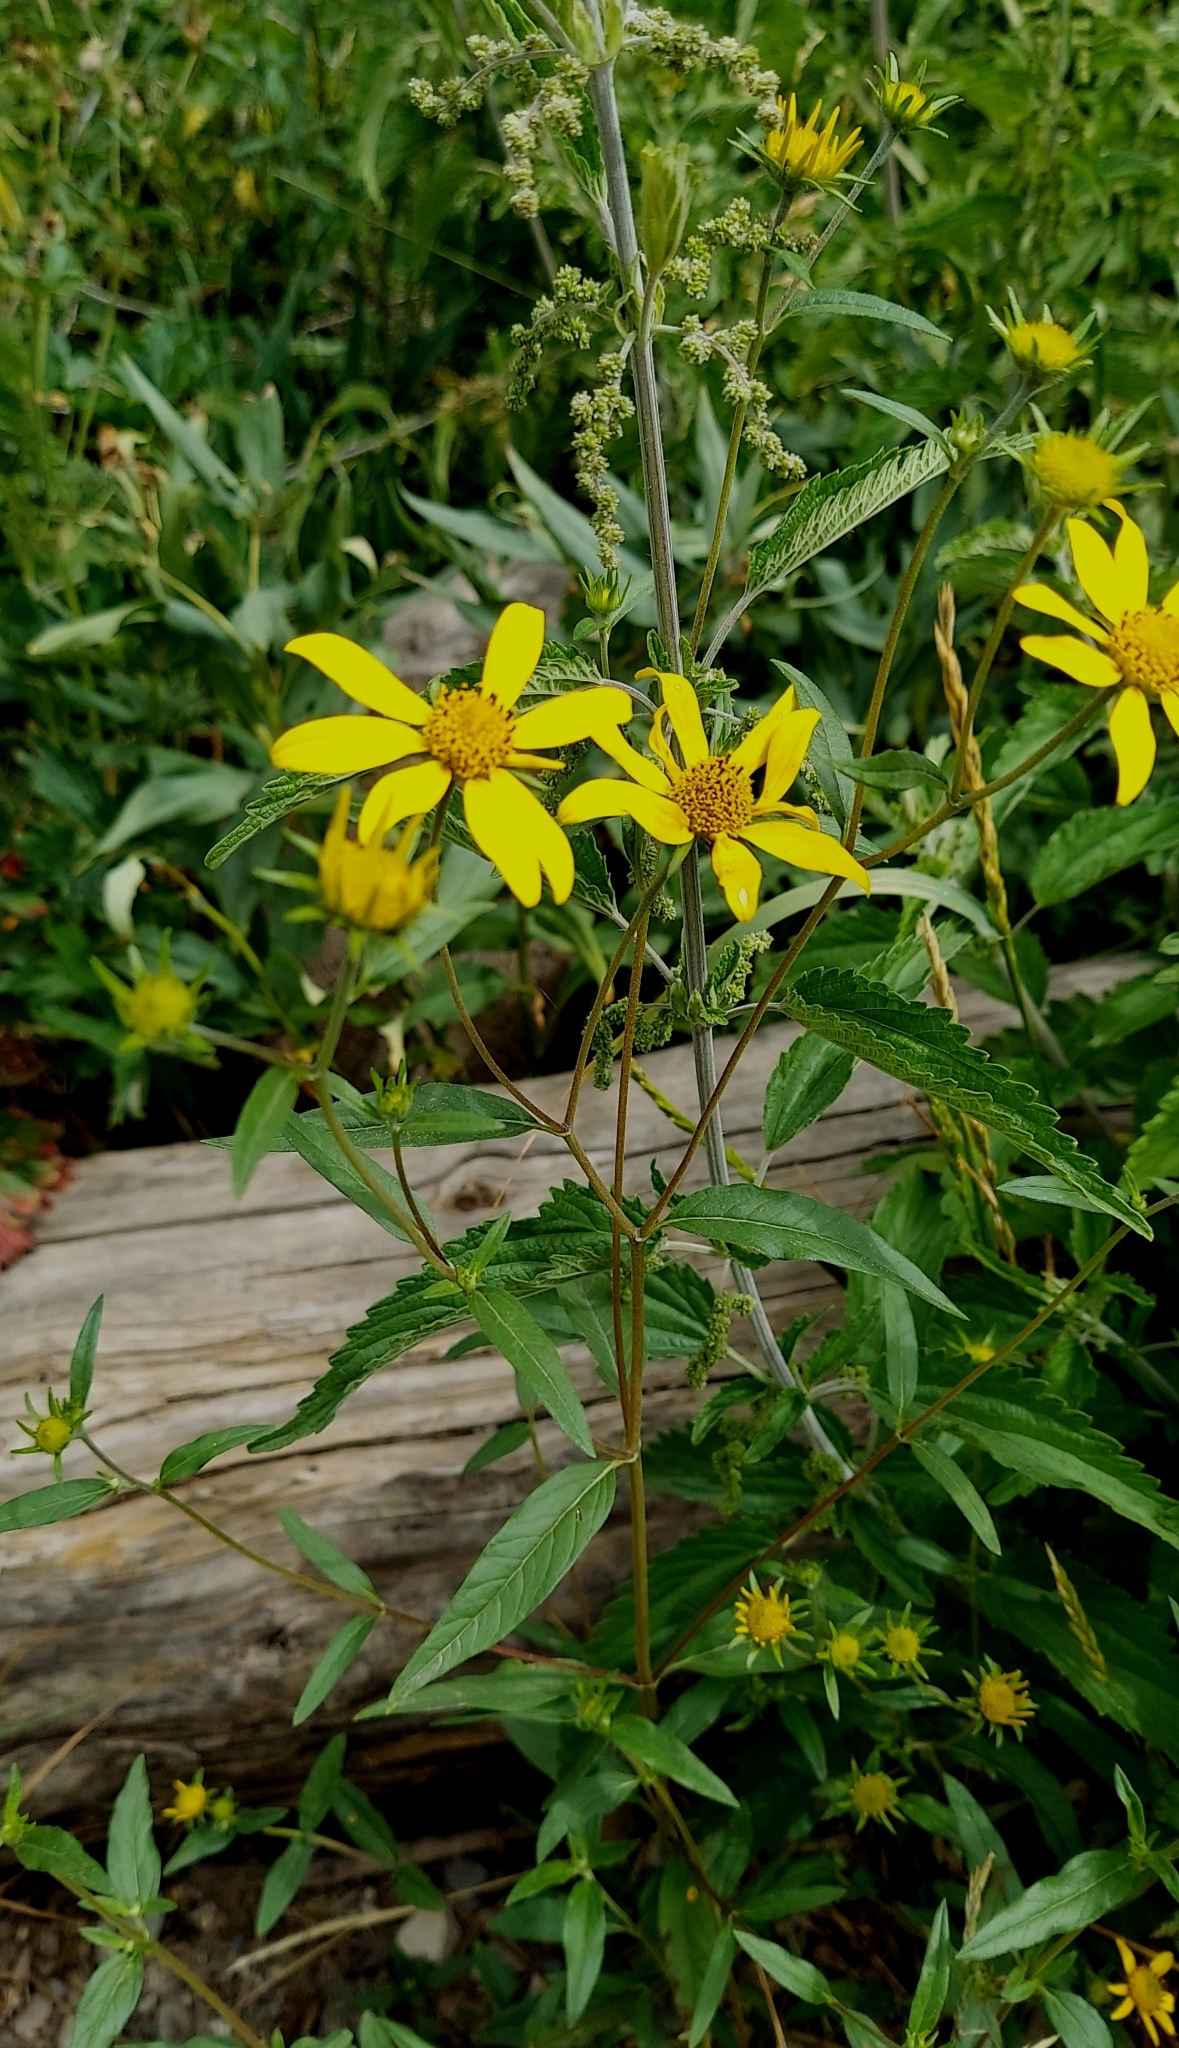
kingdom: Plantae
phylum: Tracheophyta
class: Magnoliopsida
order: Asterales
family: Asteraceae
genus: Heliomeris
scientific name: Heliomeris multiflora
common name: Showy goldeneye
